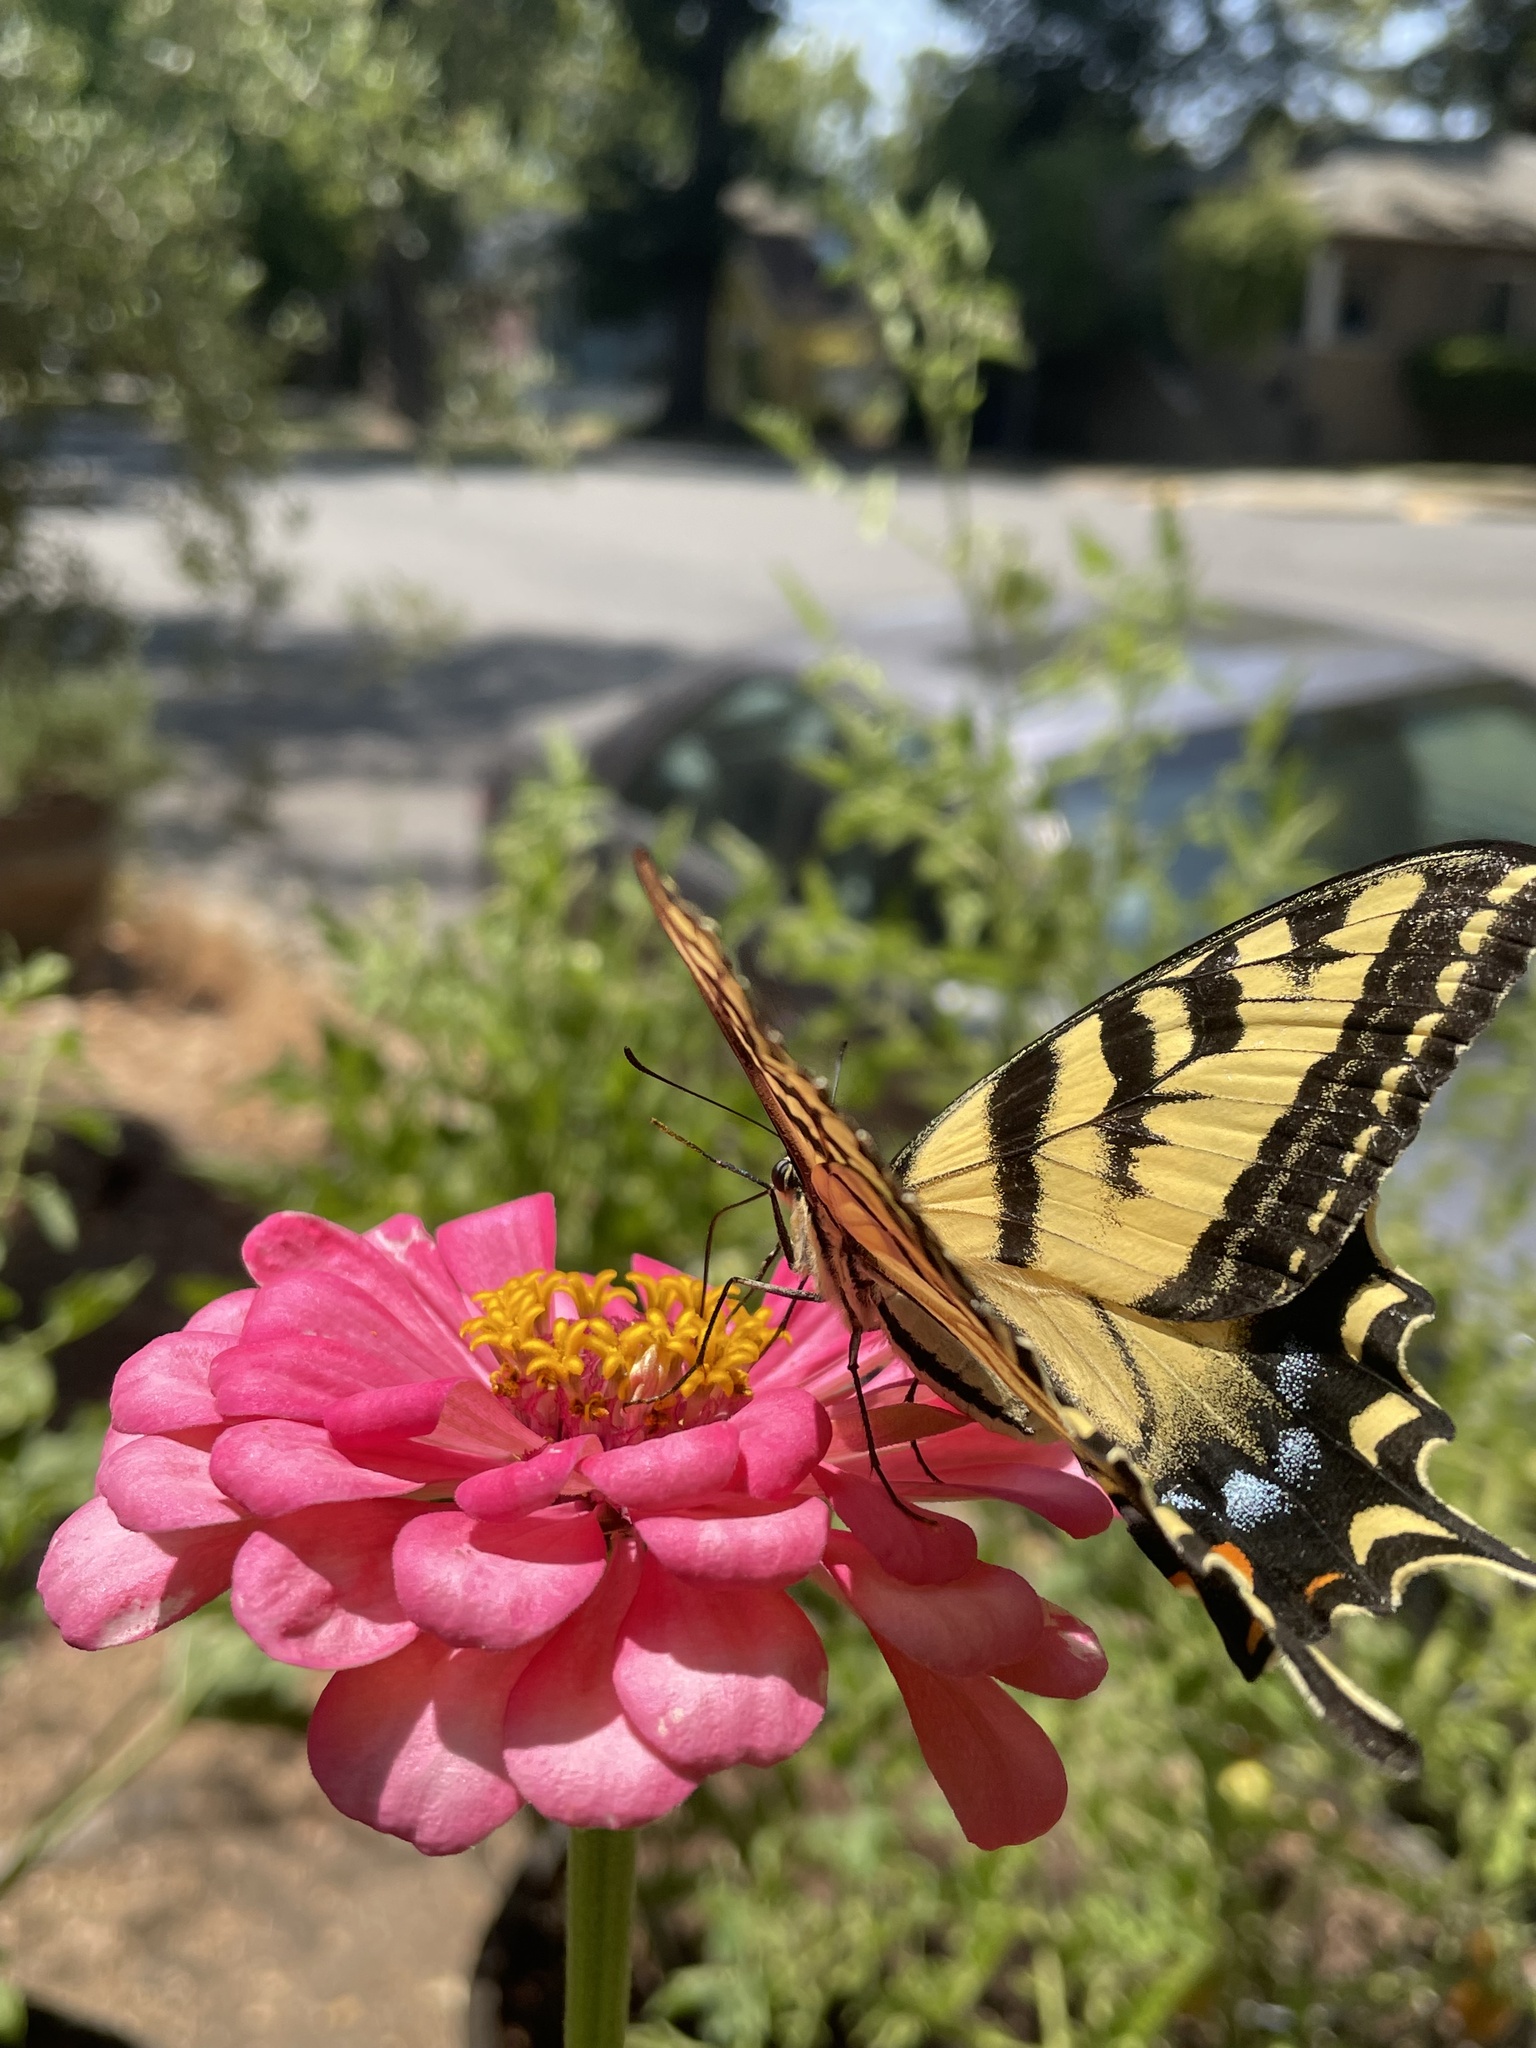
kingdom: Animalia
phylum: Arthropoda
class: Insecta
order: Lepidoptera
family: Papilionidae
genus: Papilio
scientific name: Papilio rutulus
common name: Western tiger swallowtail
